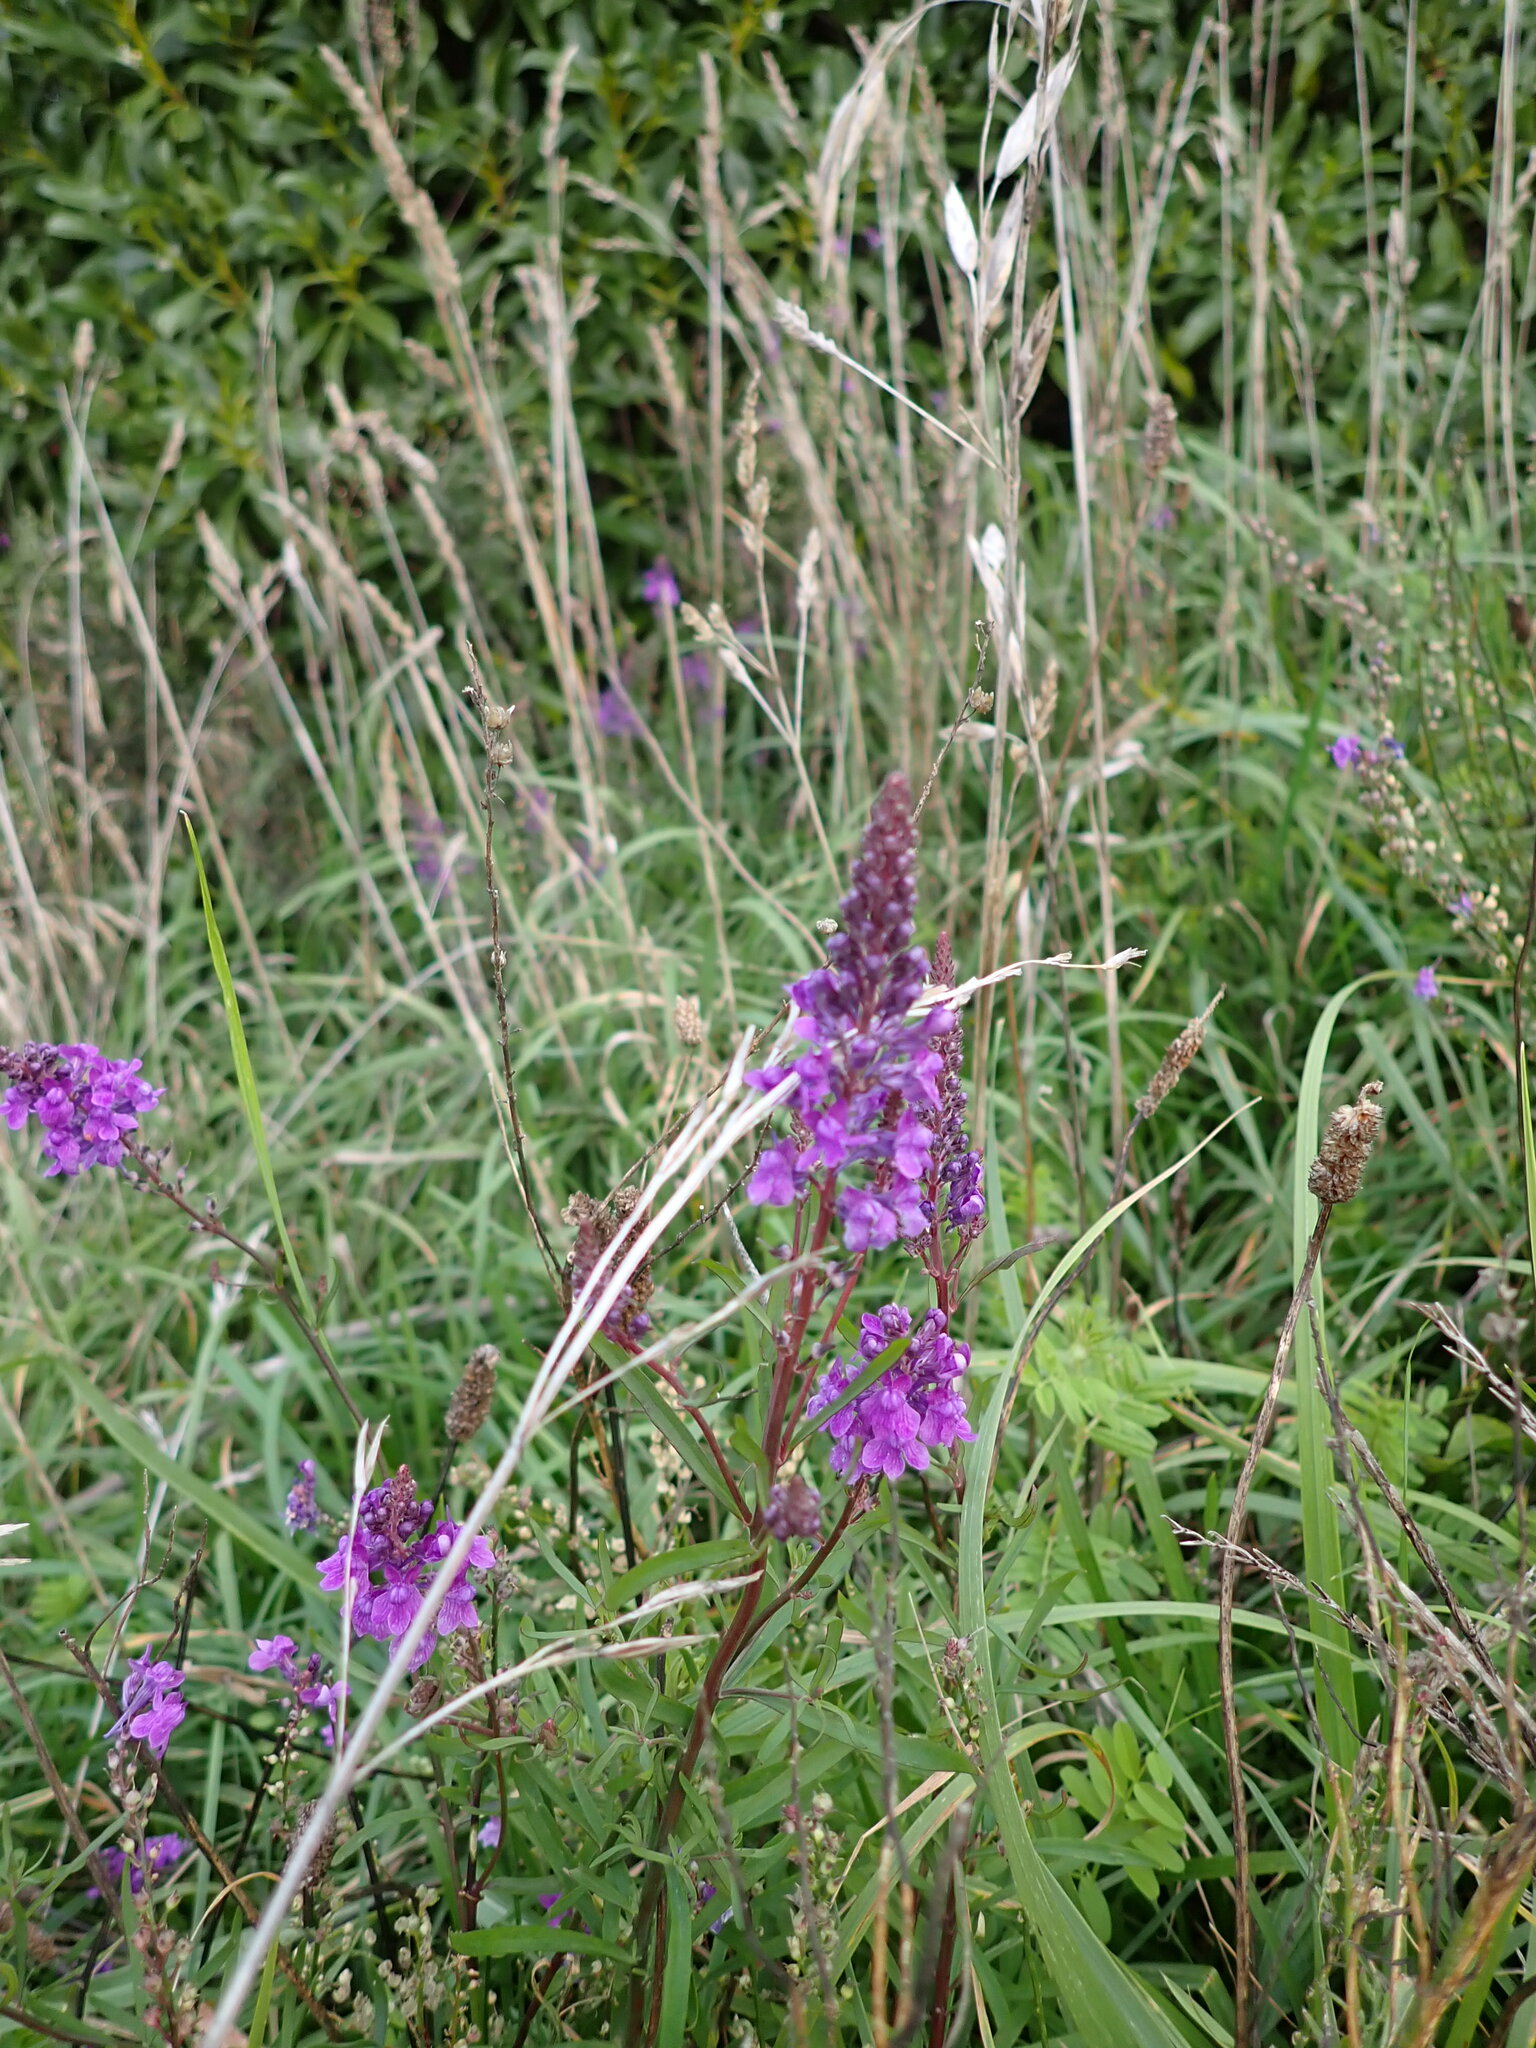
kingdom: Plantae
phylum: Tracheophyta
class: Magnoliopsida
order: Lamiales
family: Plantaginaceae
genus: Linaria
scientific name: Linaria purpurea
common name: Purple toadflax
